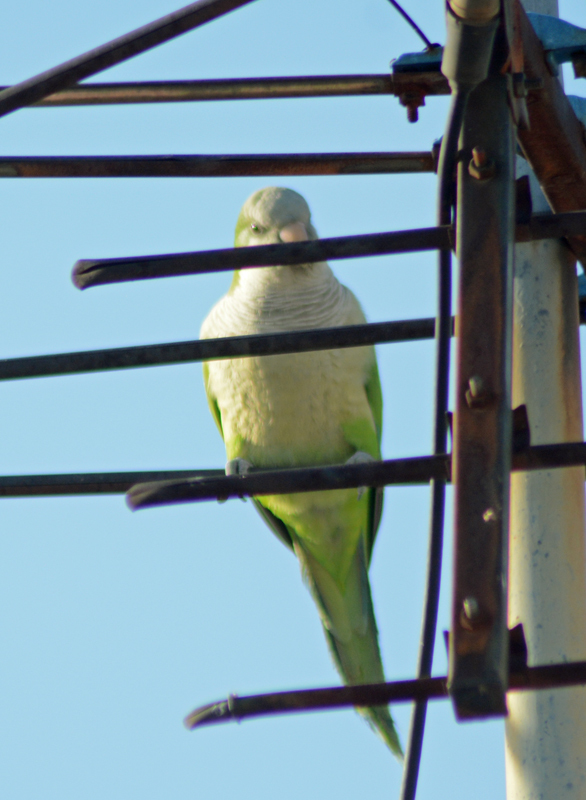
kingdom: Animalia
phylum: Chordata
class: Aves
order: Psittaciformes
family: Psittacidae
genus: Myiopsitta
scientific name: Myiopsitta monachus
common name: Monk parakeet
